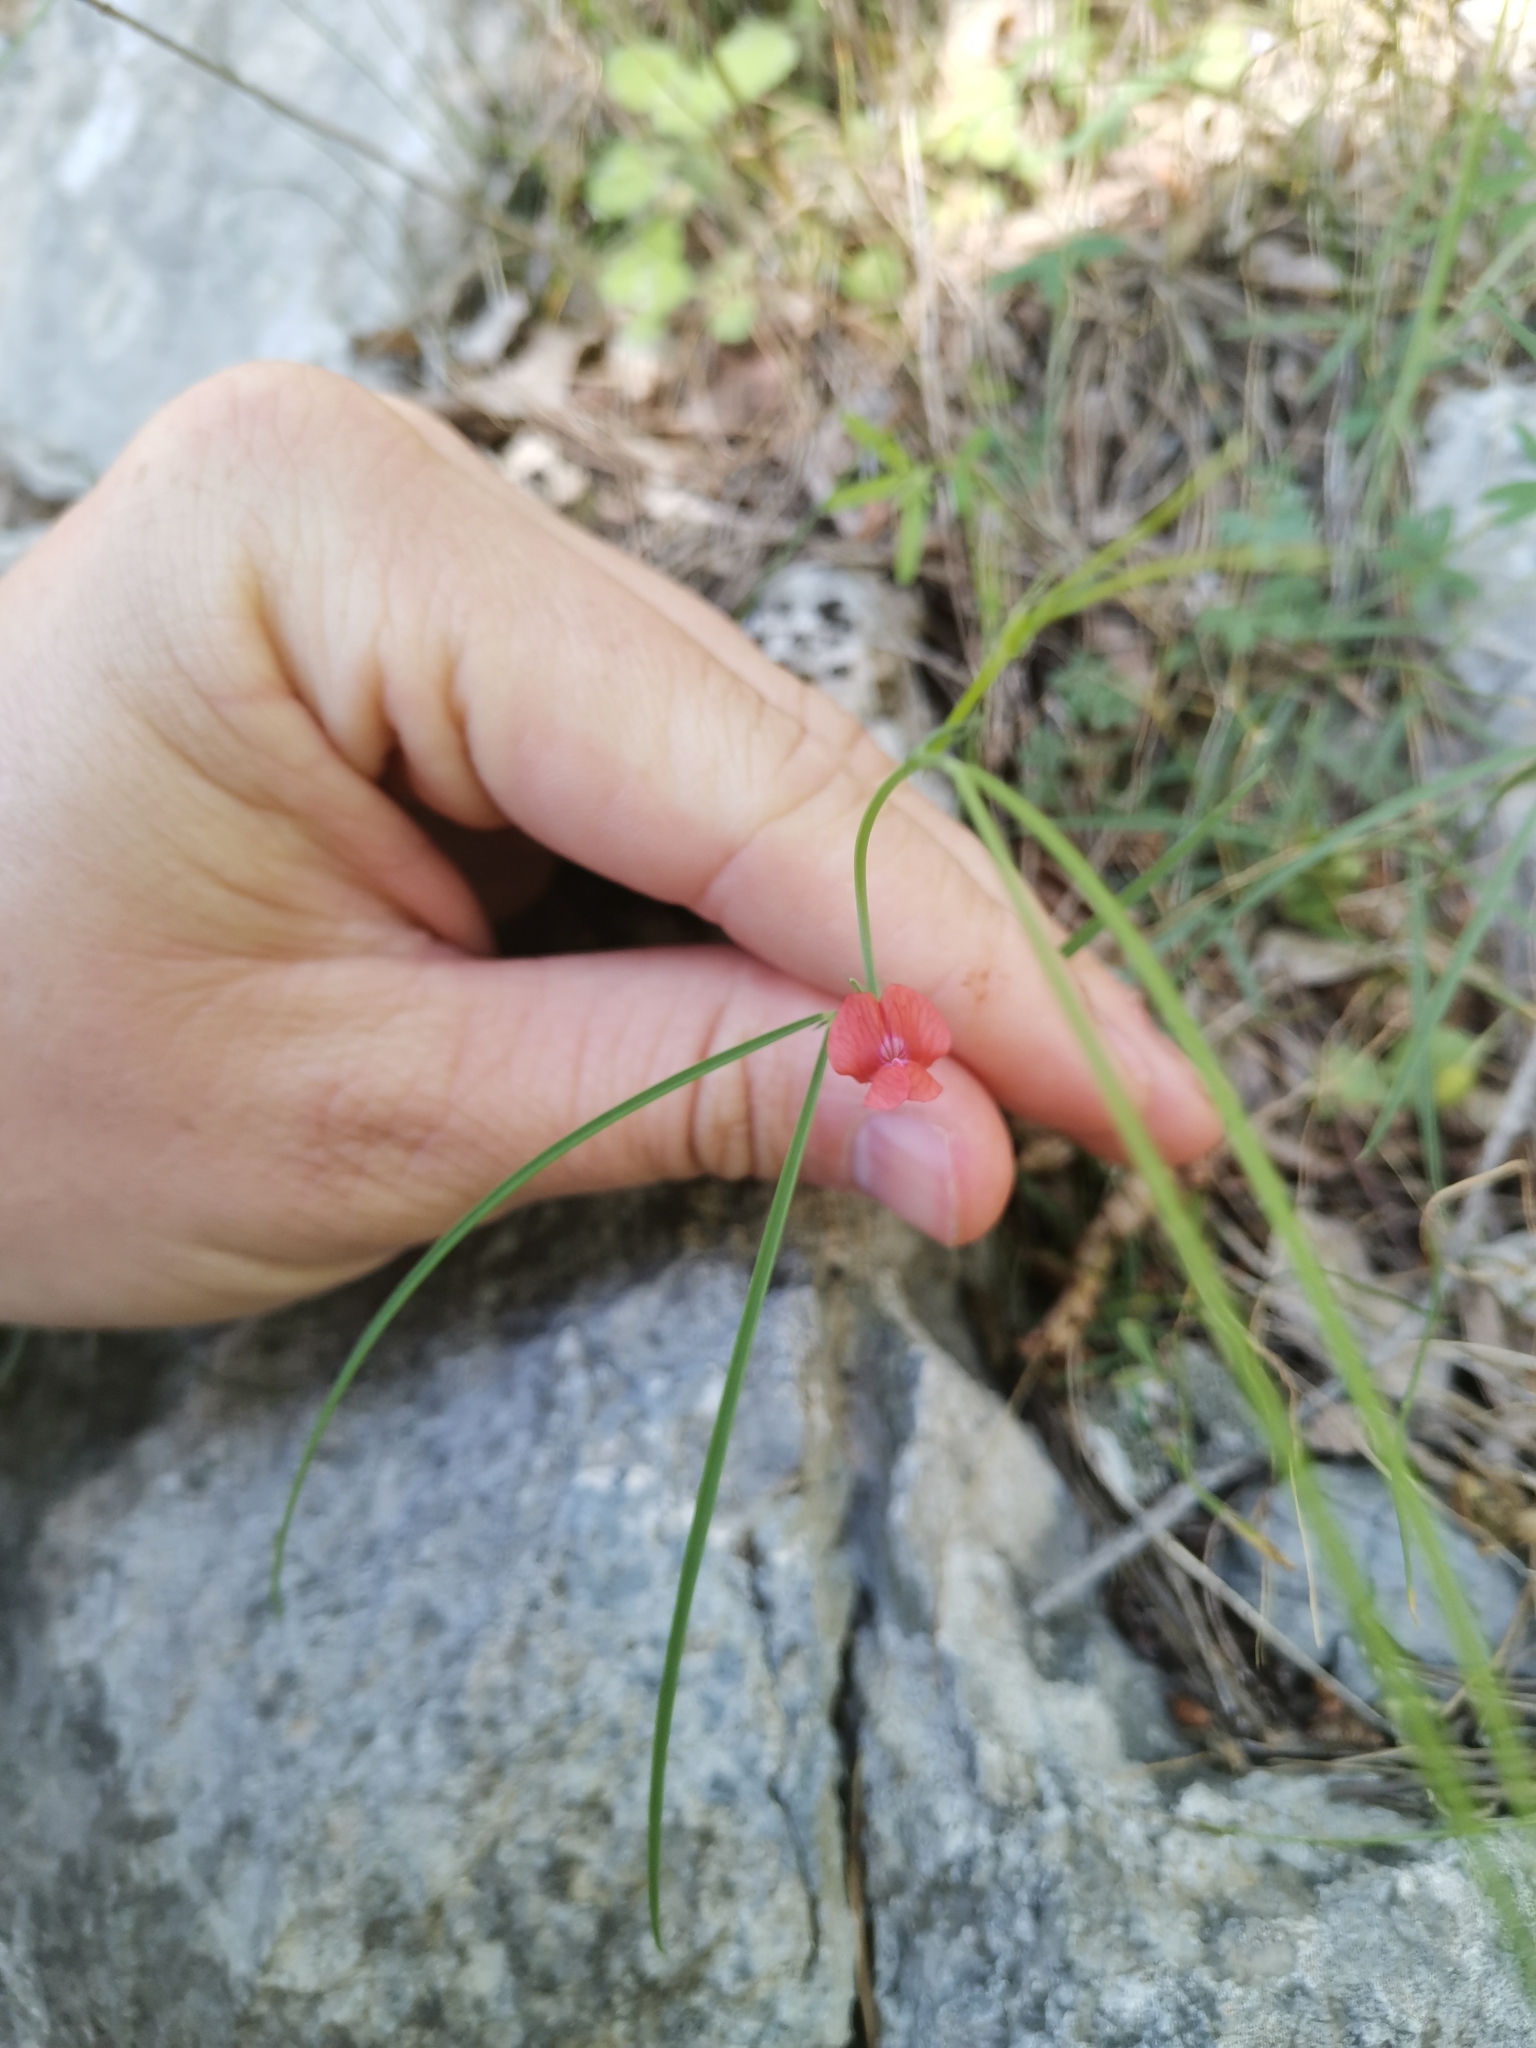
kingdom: Plantae
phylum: Tracheophyta
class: Magnoliopsida
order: Fabales
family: Fabaceae
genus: Lathyrus
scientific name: Lathyrus sphaericus
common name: Grass pea
